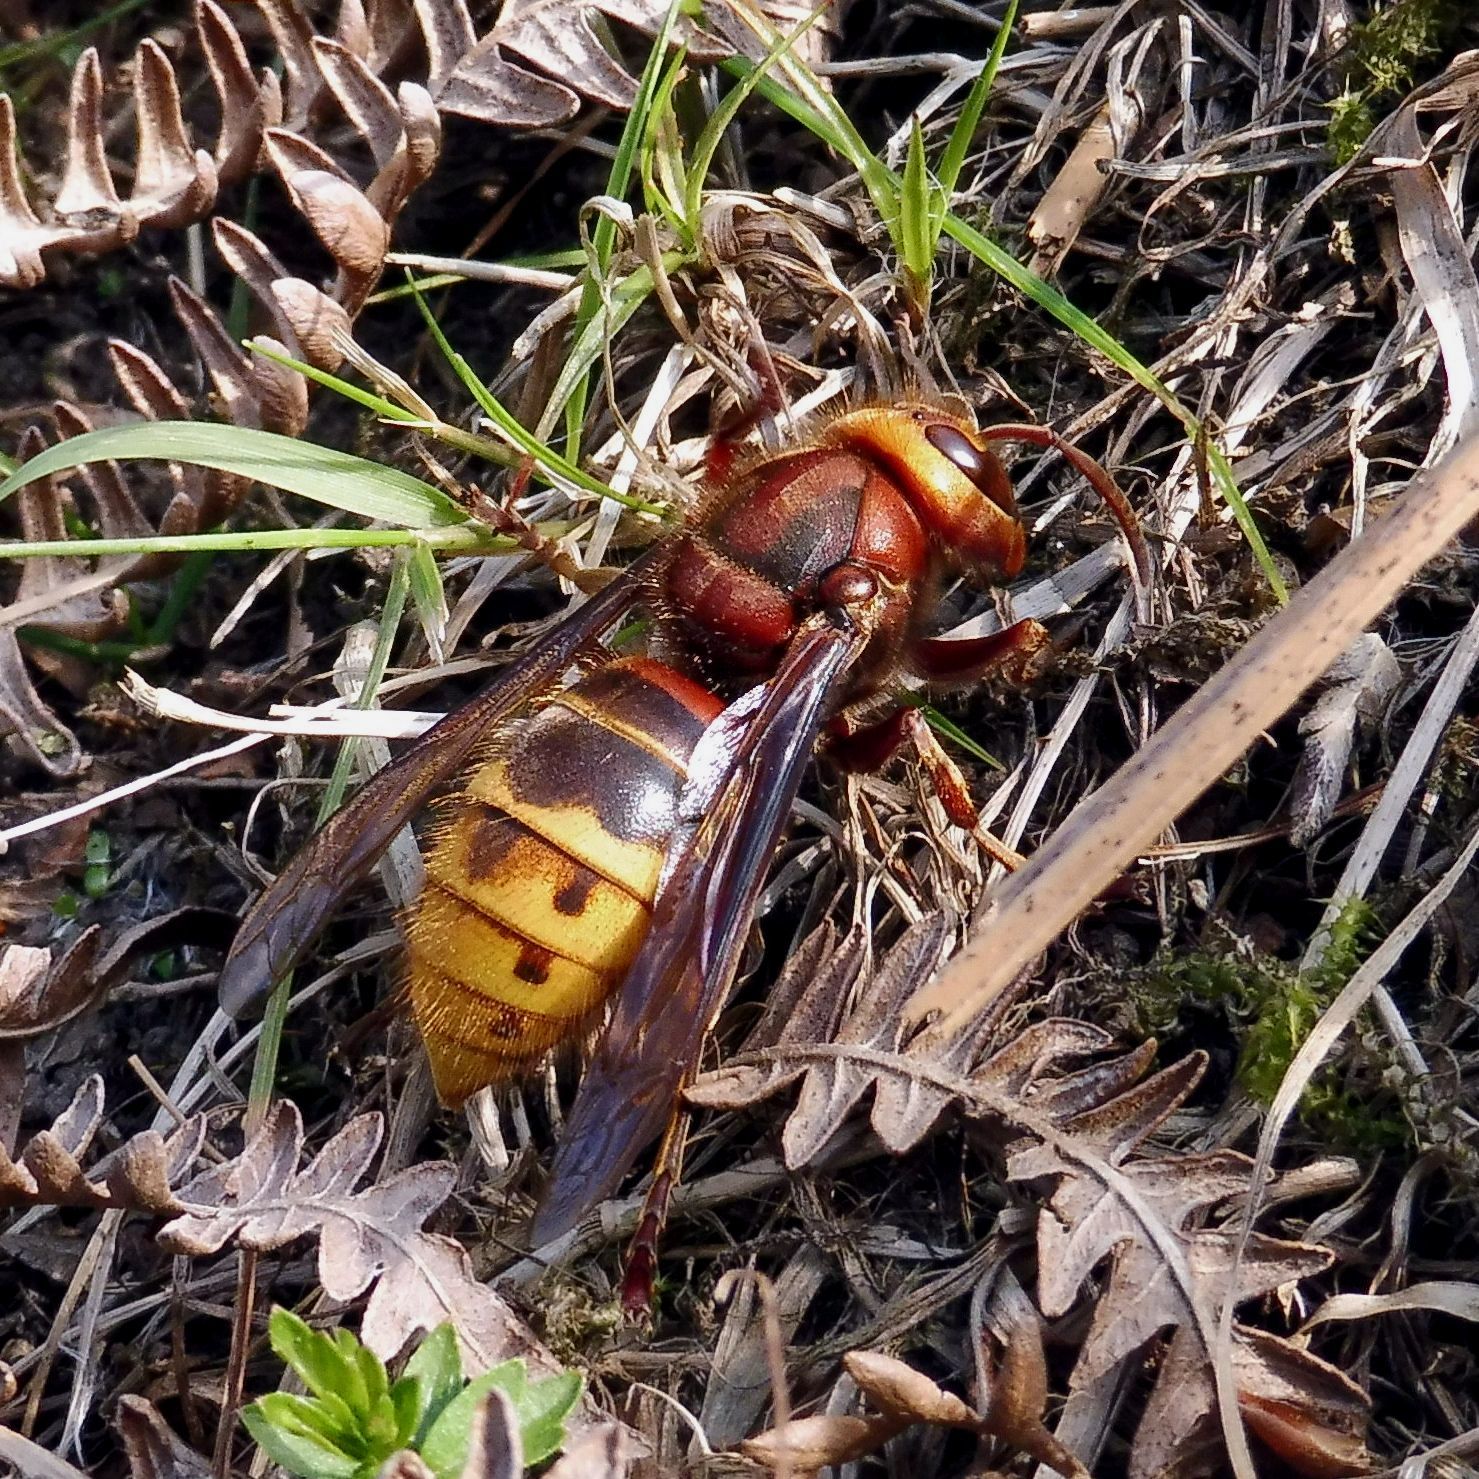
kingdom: Animalia
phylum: Arthropoda
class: Insecta
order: Hymenoptera
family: Vespidae
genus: Vespa
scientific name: Vespa crabro
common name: Hornet
